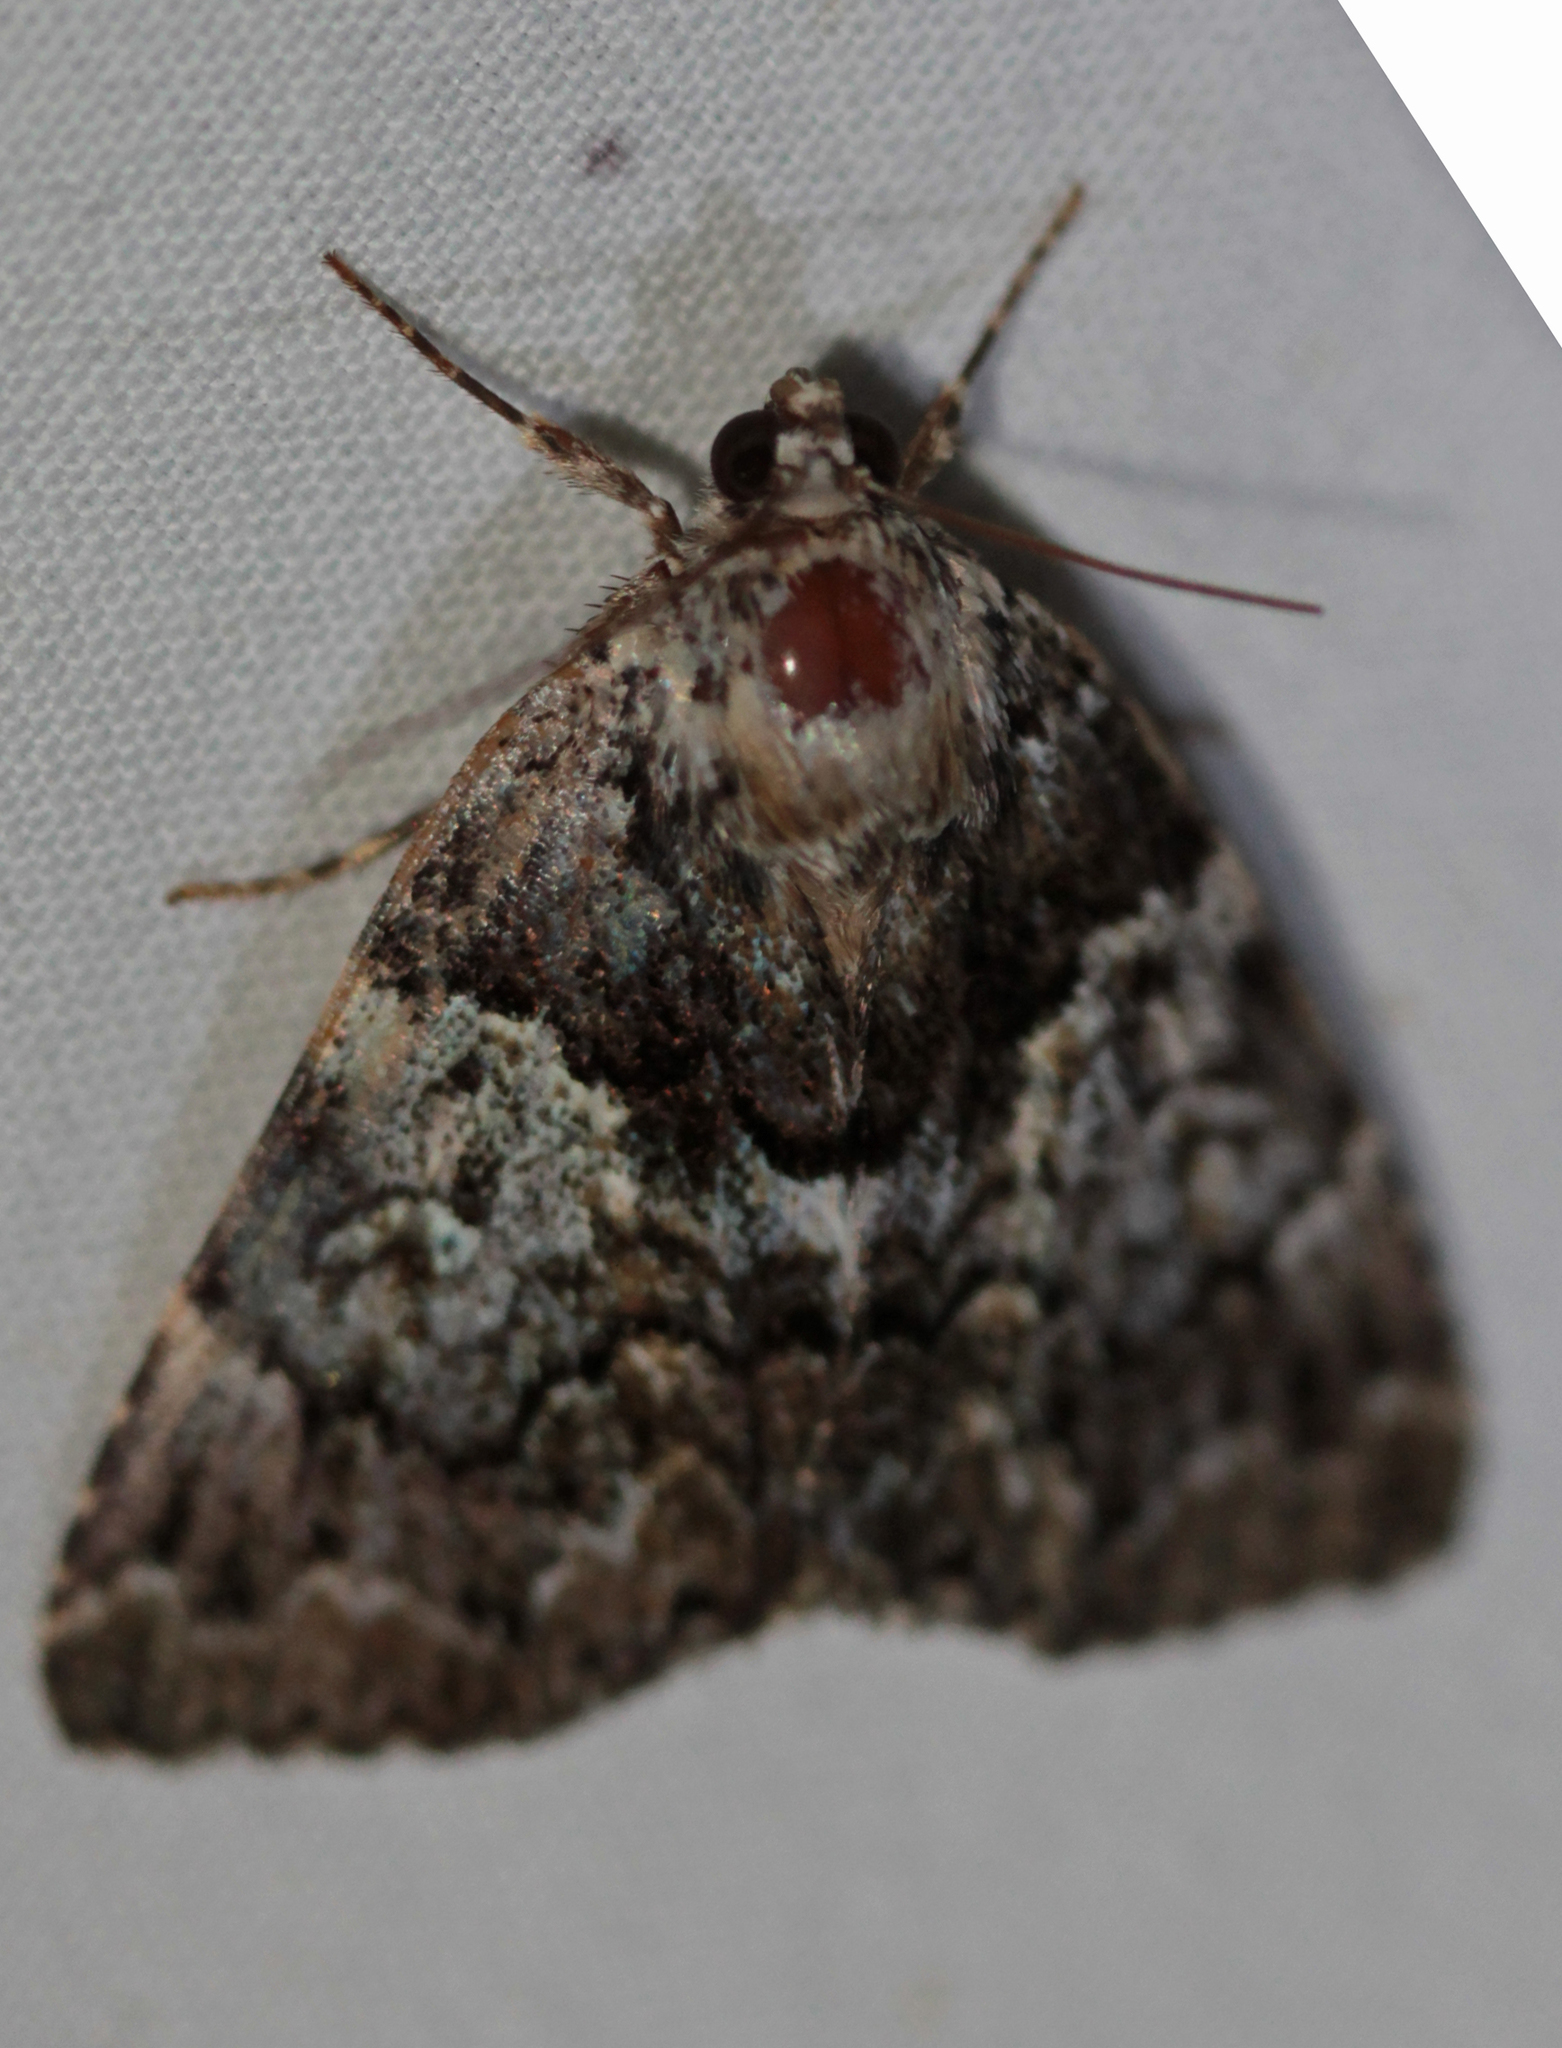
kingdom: Animalia
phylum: Arthropoda
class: Insecta
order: Lepidoptera
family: Erebidae
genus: Allotria
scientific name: Allotria elonympha
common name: False underwing
